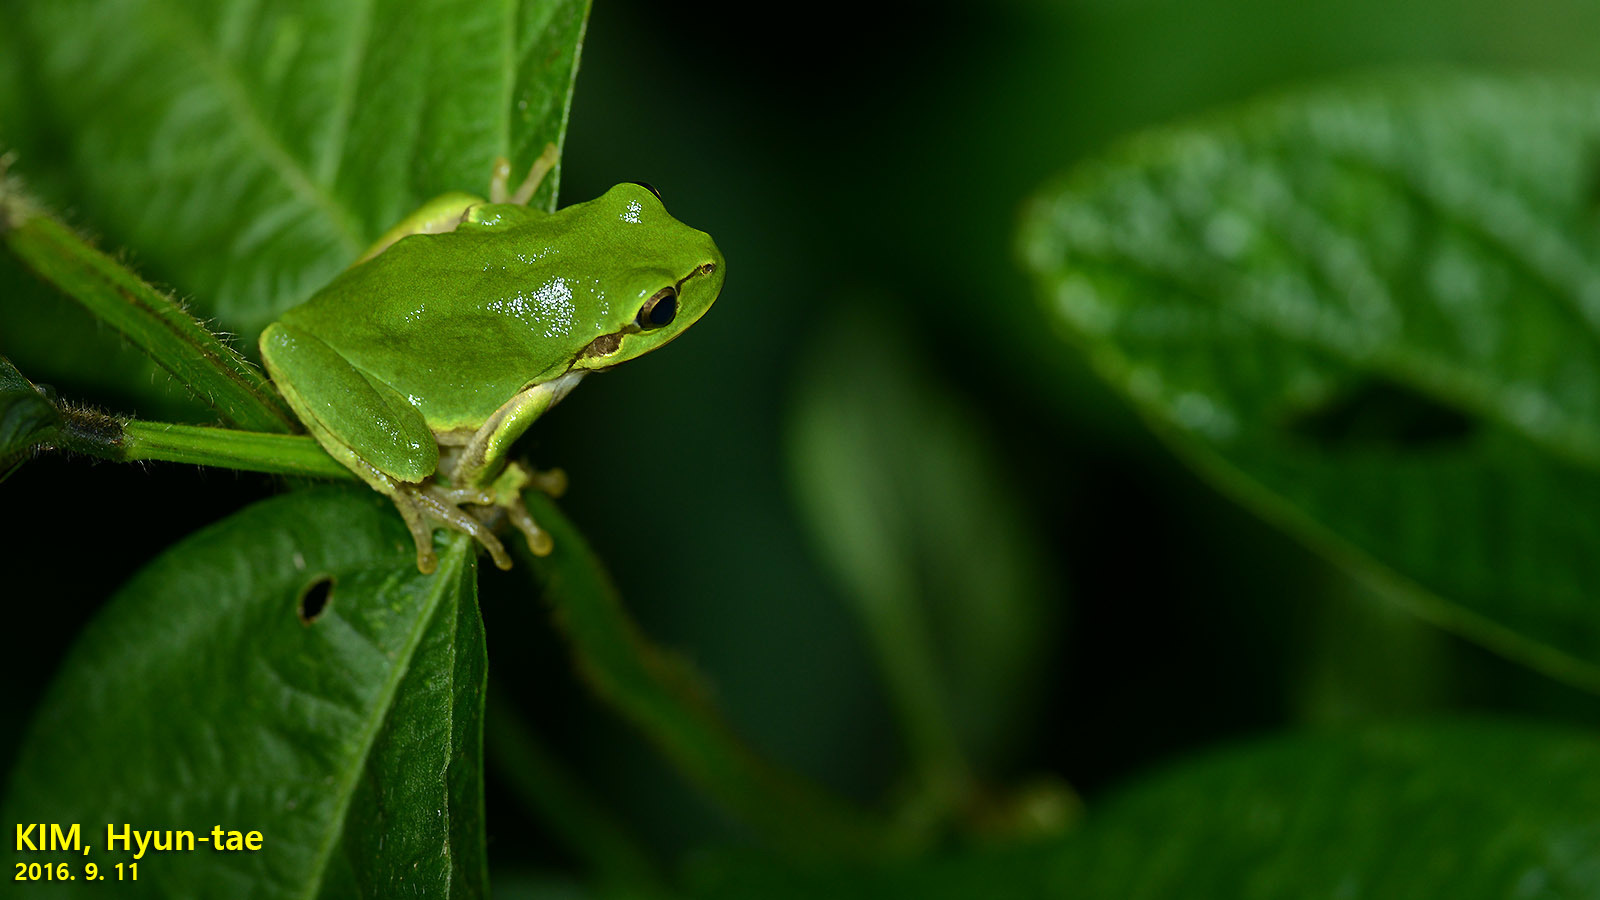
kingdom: Animalia
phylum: Chordata
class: Amphibia
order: Anura
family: Hylidae
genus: Dryophytes
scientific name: Dryophytes japonicus
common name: Japanese treefrog
